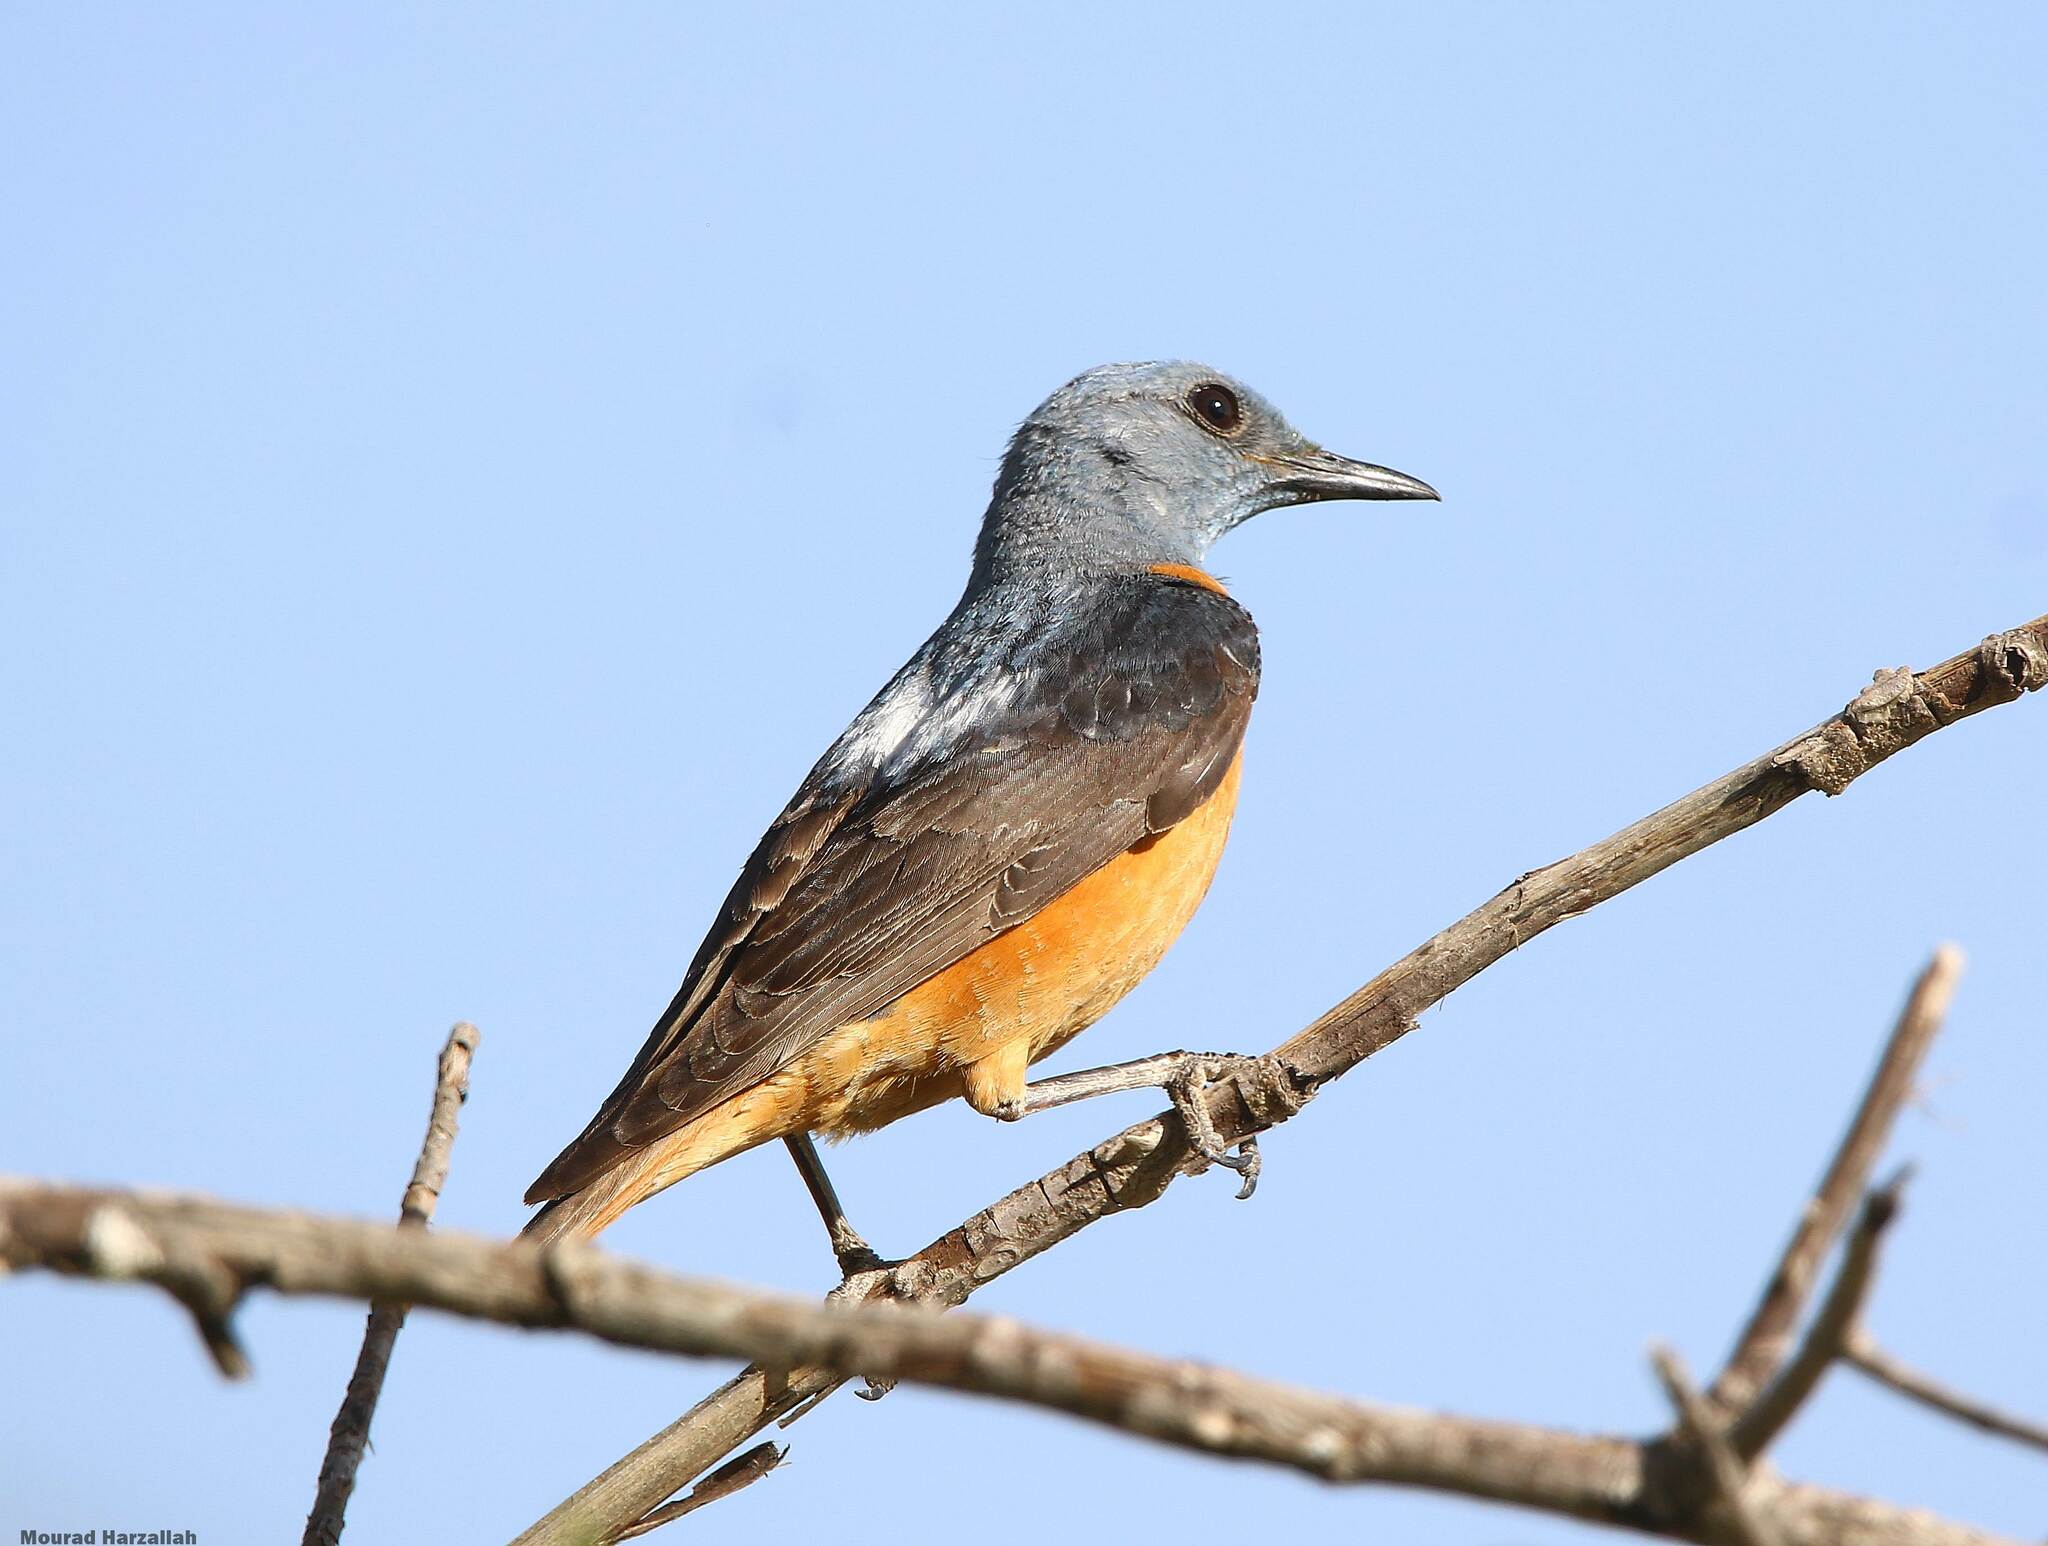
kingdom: Animalia
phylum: Chordata
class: Aves
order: Passeriformes
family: Muscicapidae
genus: Monticola
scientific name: Monticola saxatilis
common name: Rufous-tailed rock thrush
